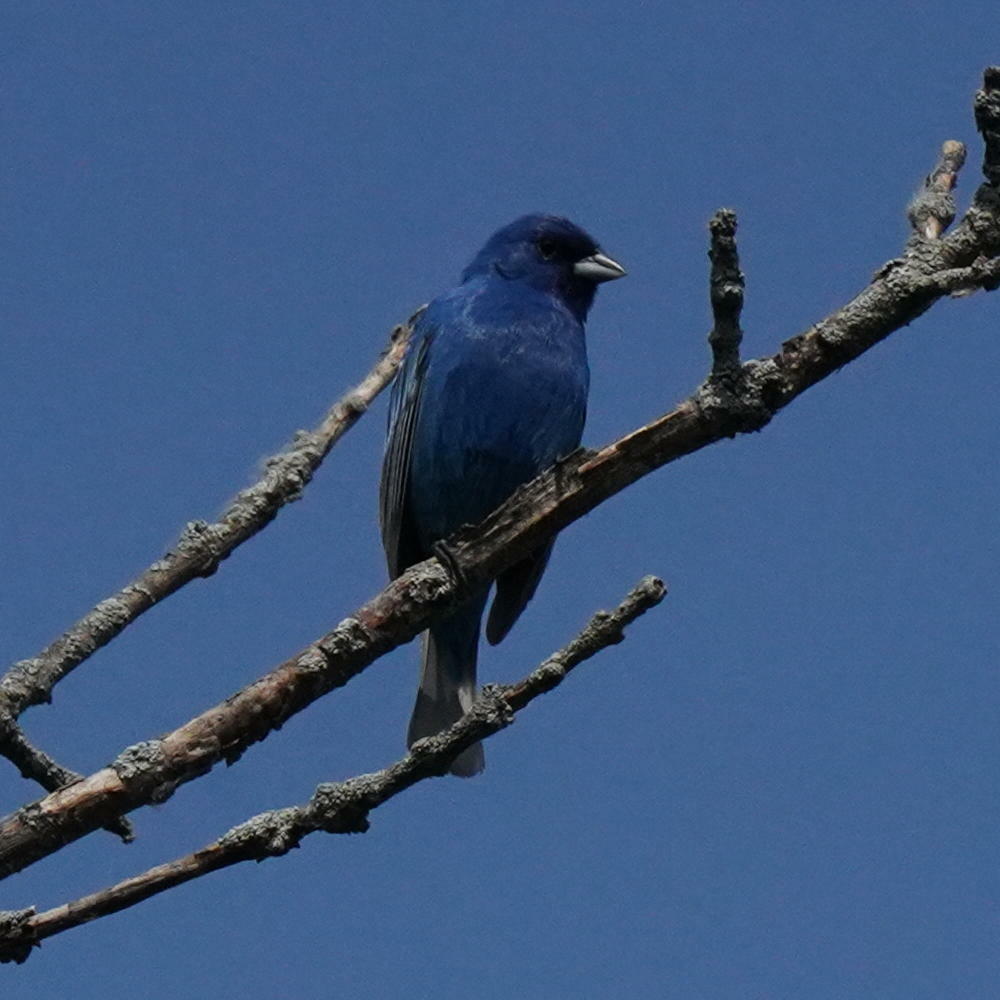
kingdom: Animalia
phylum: Chordata
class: Aves
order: Passeriformes
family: Cardinalidae
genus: Passerina
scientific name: Passerina cyanea
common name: Indigo bunting
